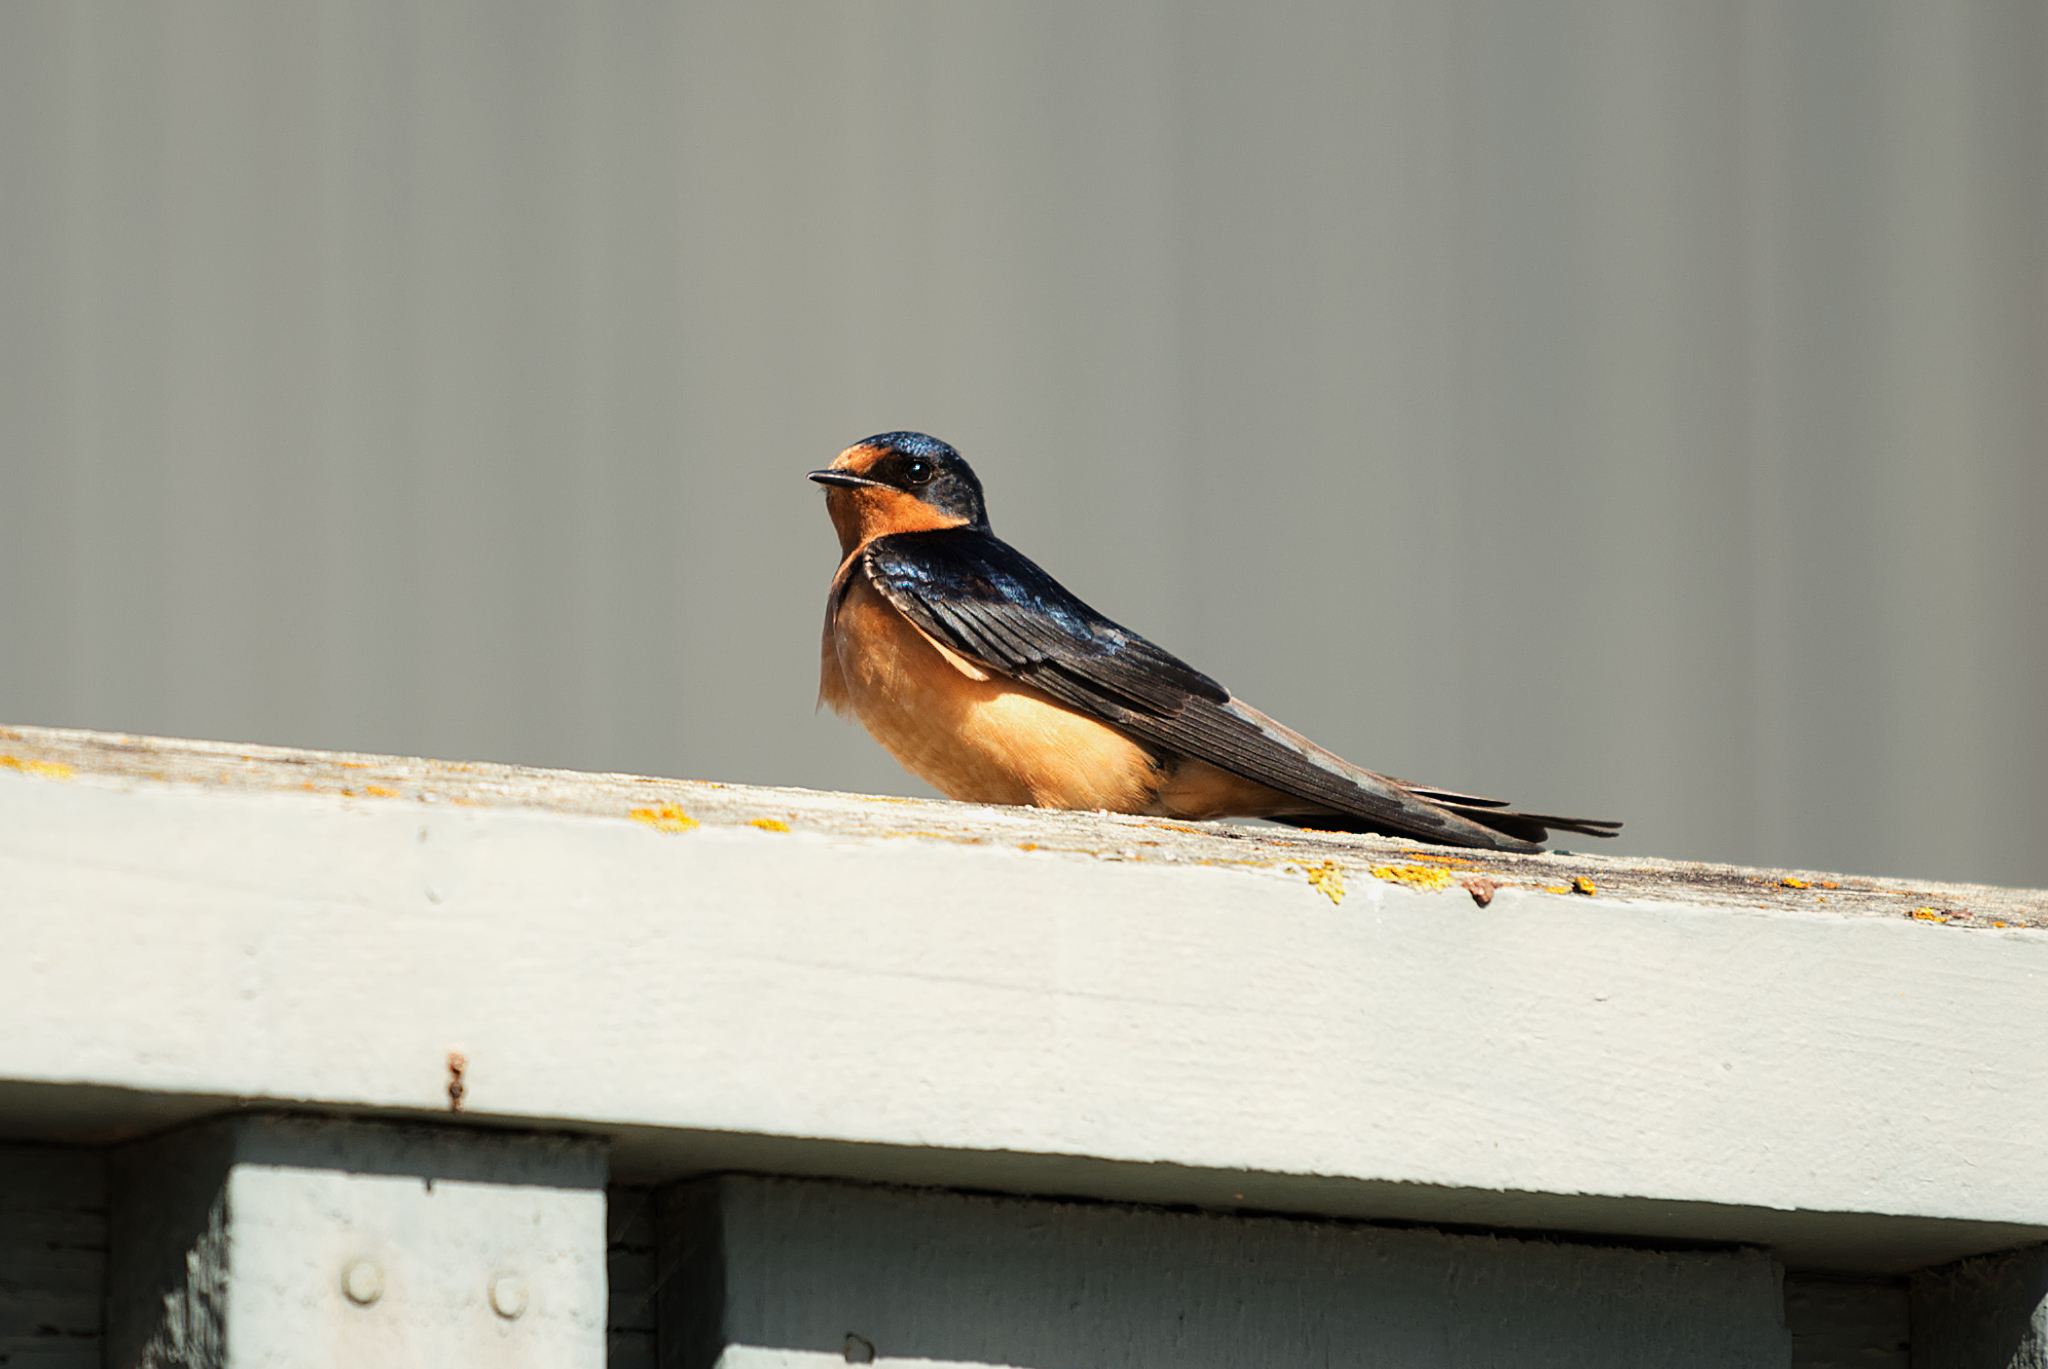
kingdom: Animalia
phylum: Chordata
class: Aves
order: Passeriformes
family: Hirundinidae
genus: Hirundo
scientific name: Hirundo rustica
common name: Barn swallow
